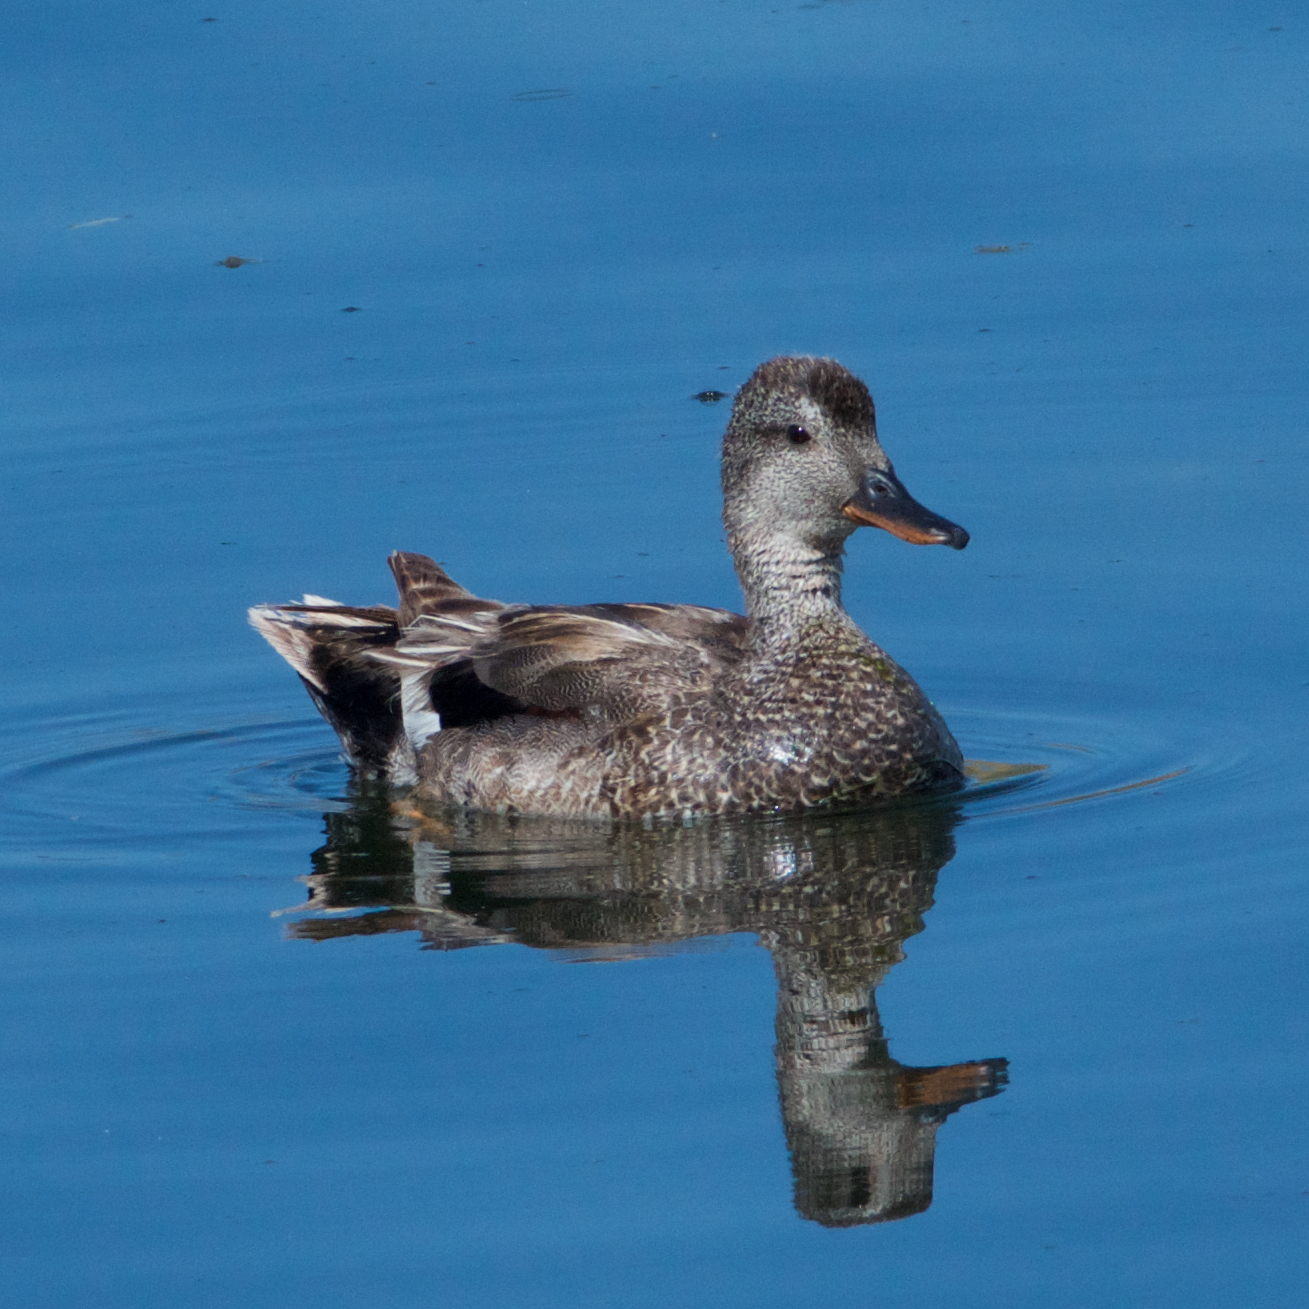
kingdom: Animalia
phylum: Chordata
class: Aves
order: Anseriformes
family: Anatidae
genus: Mareca
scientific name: Mareca strepera
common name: Gadwall
